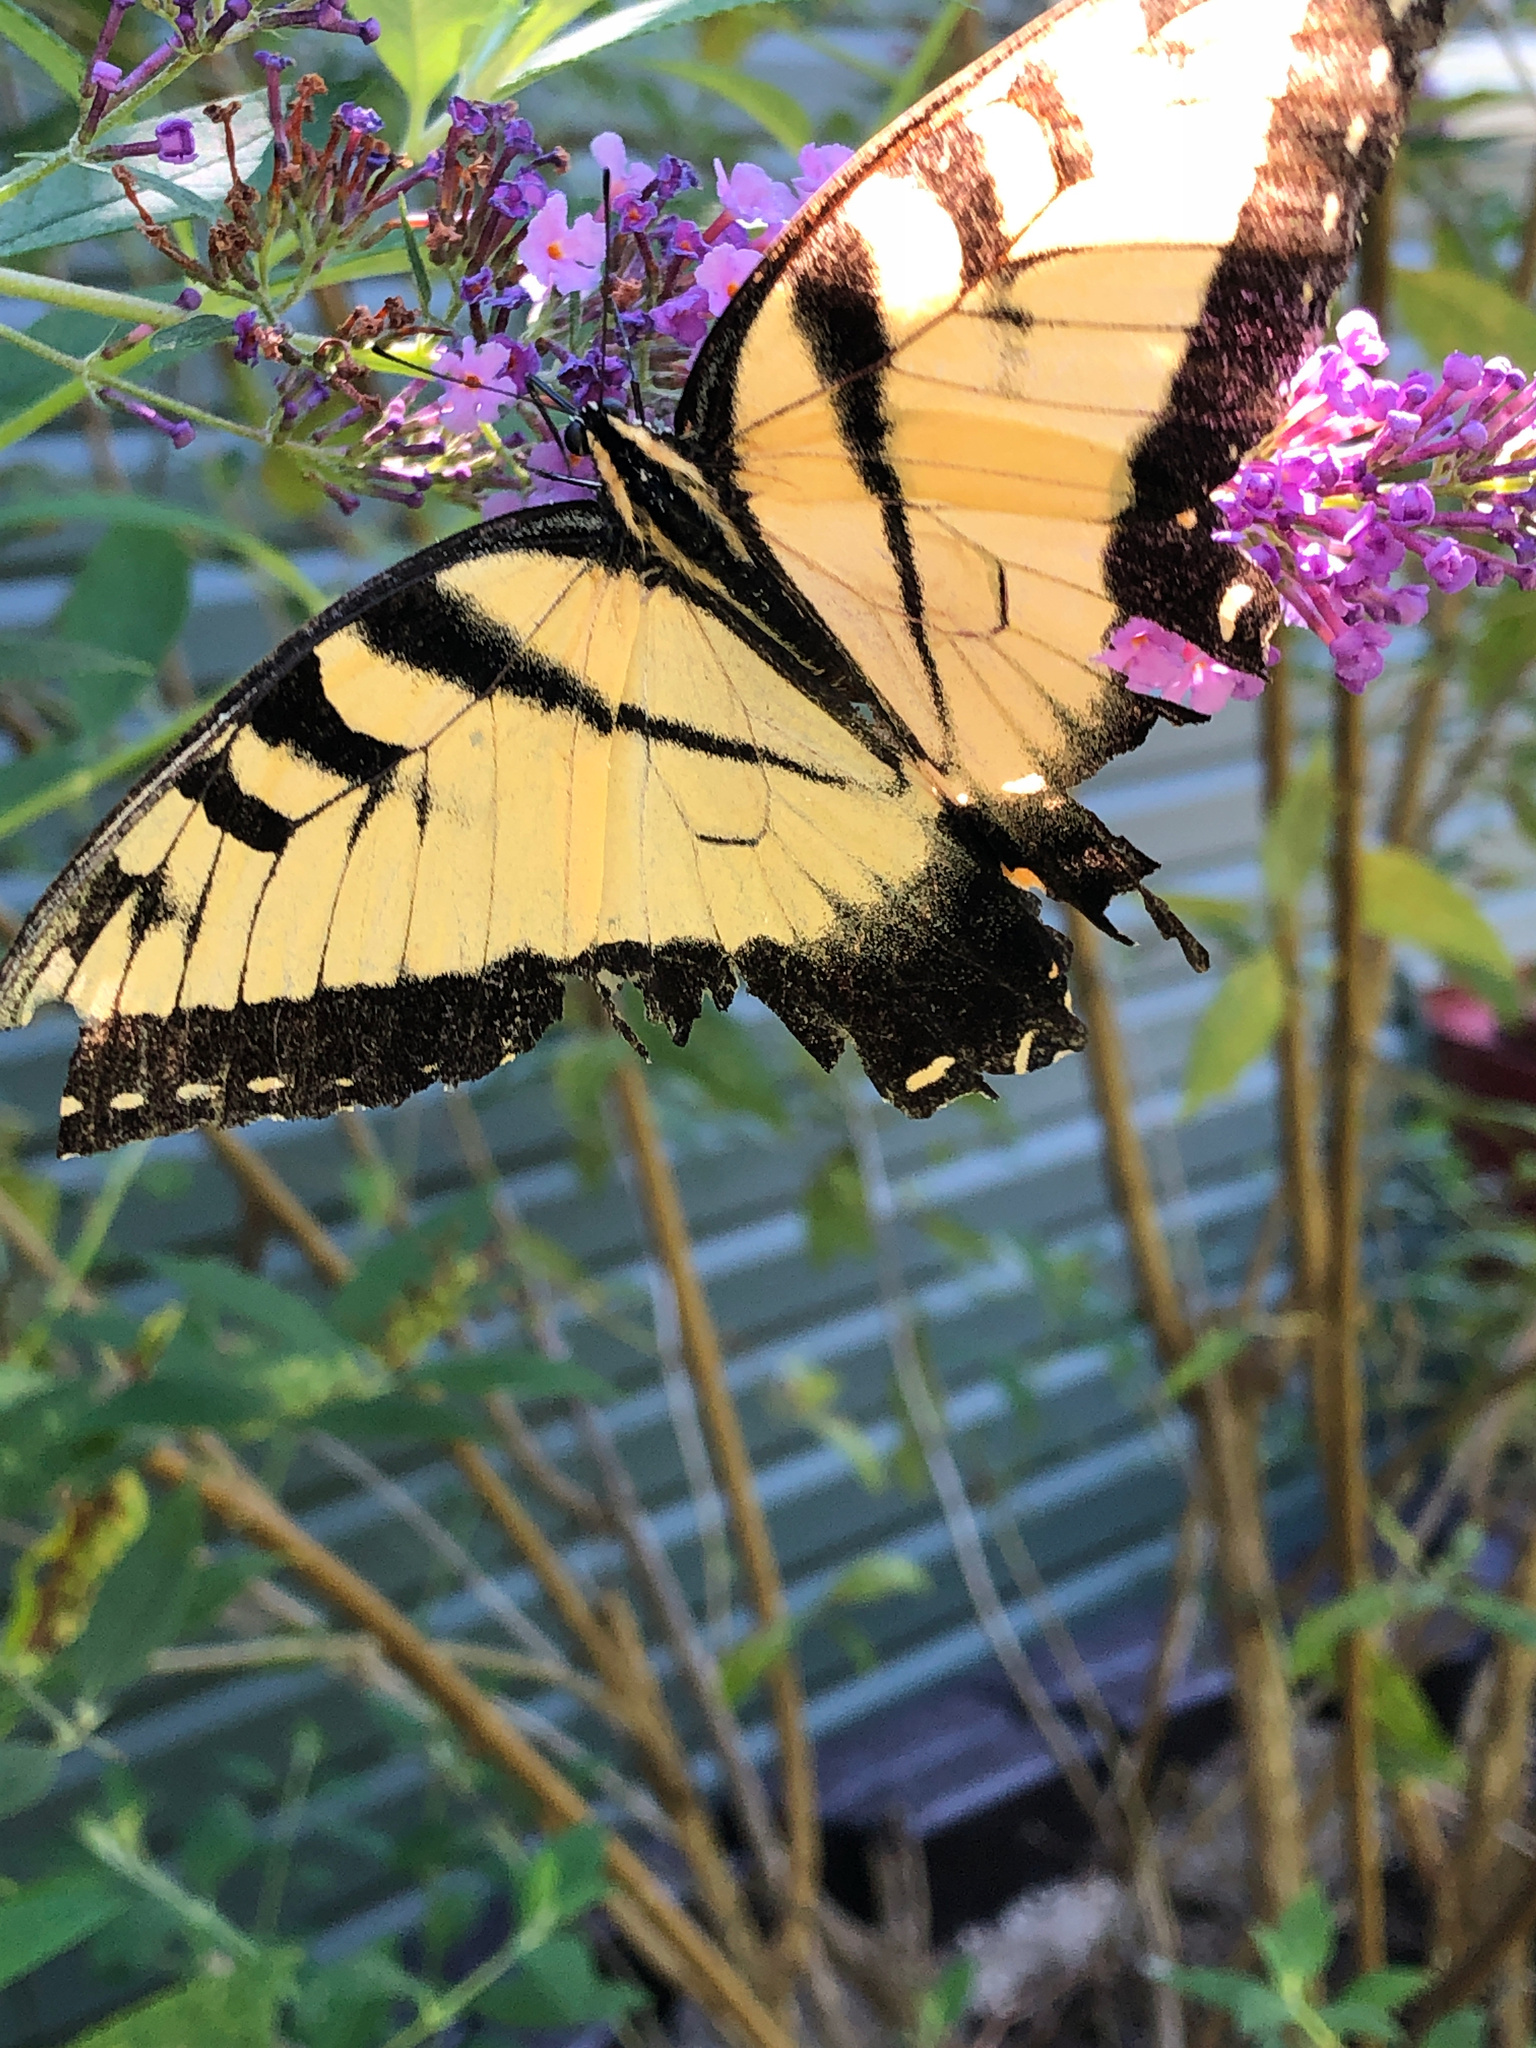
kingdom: Animalia
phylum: Arthropoda
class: Insecta
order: Lepidoptera
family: Papilionidae
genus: Papilio
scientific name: Papilio glaucus
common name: Tiger swallowtail
